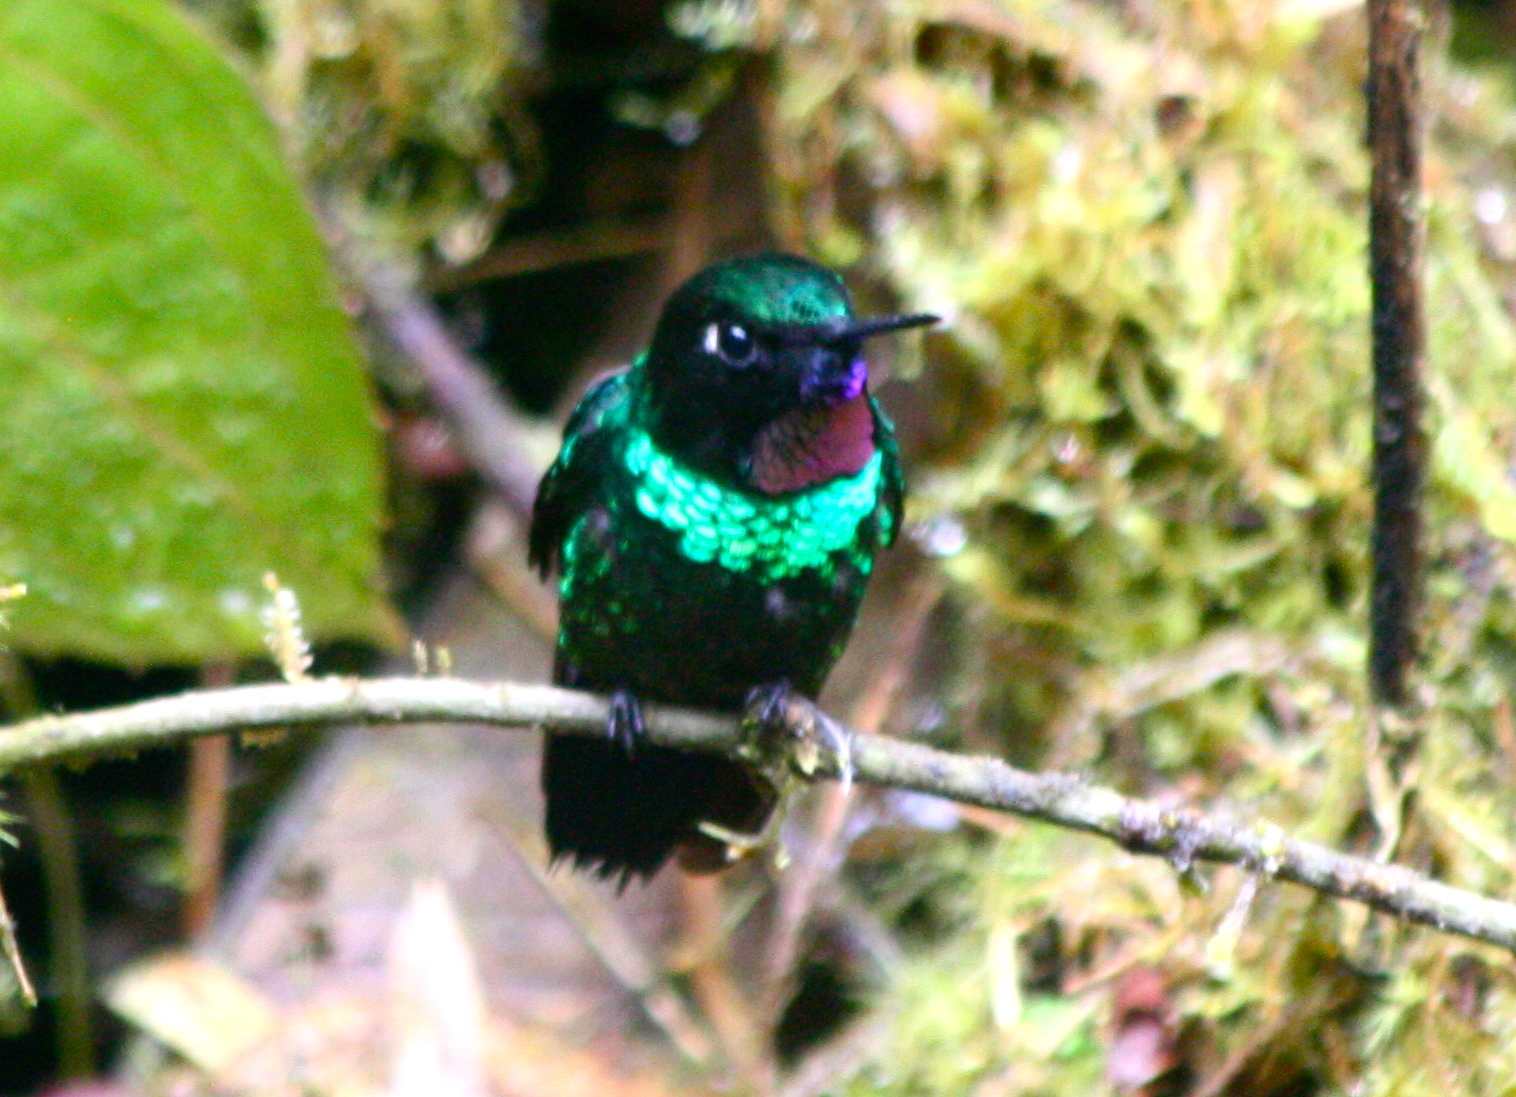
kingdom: Animalia
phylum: Chordata
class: Aves
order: Apodiformes
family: Trochilidae
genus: Heliangelus
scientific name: Heliangelus exortis
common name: Tourmaline sunangel
